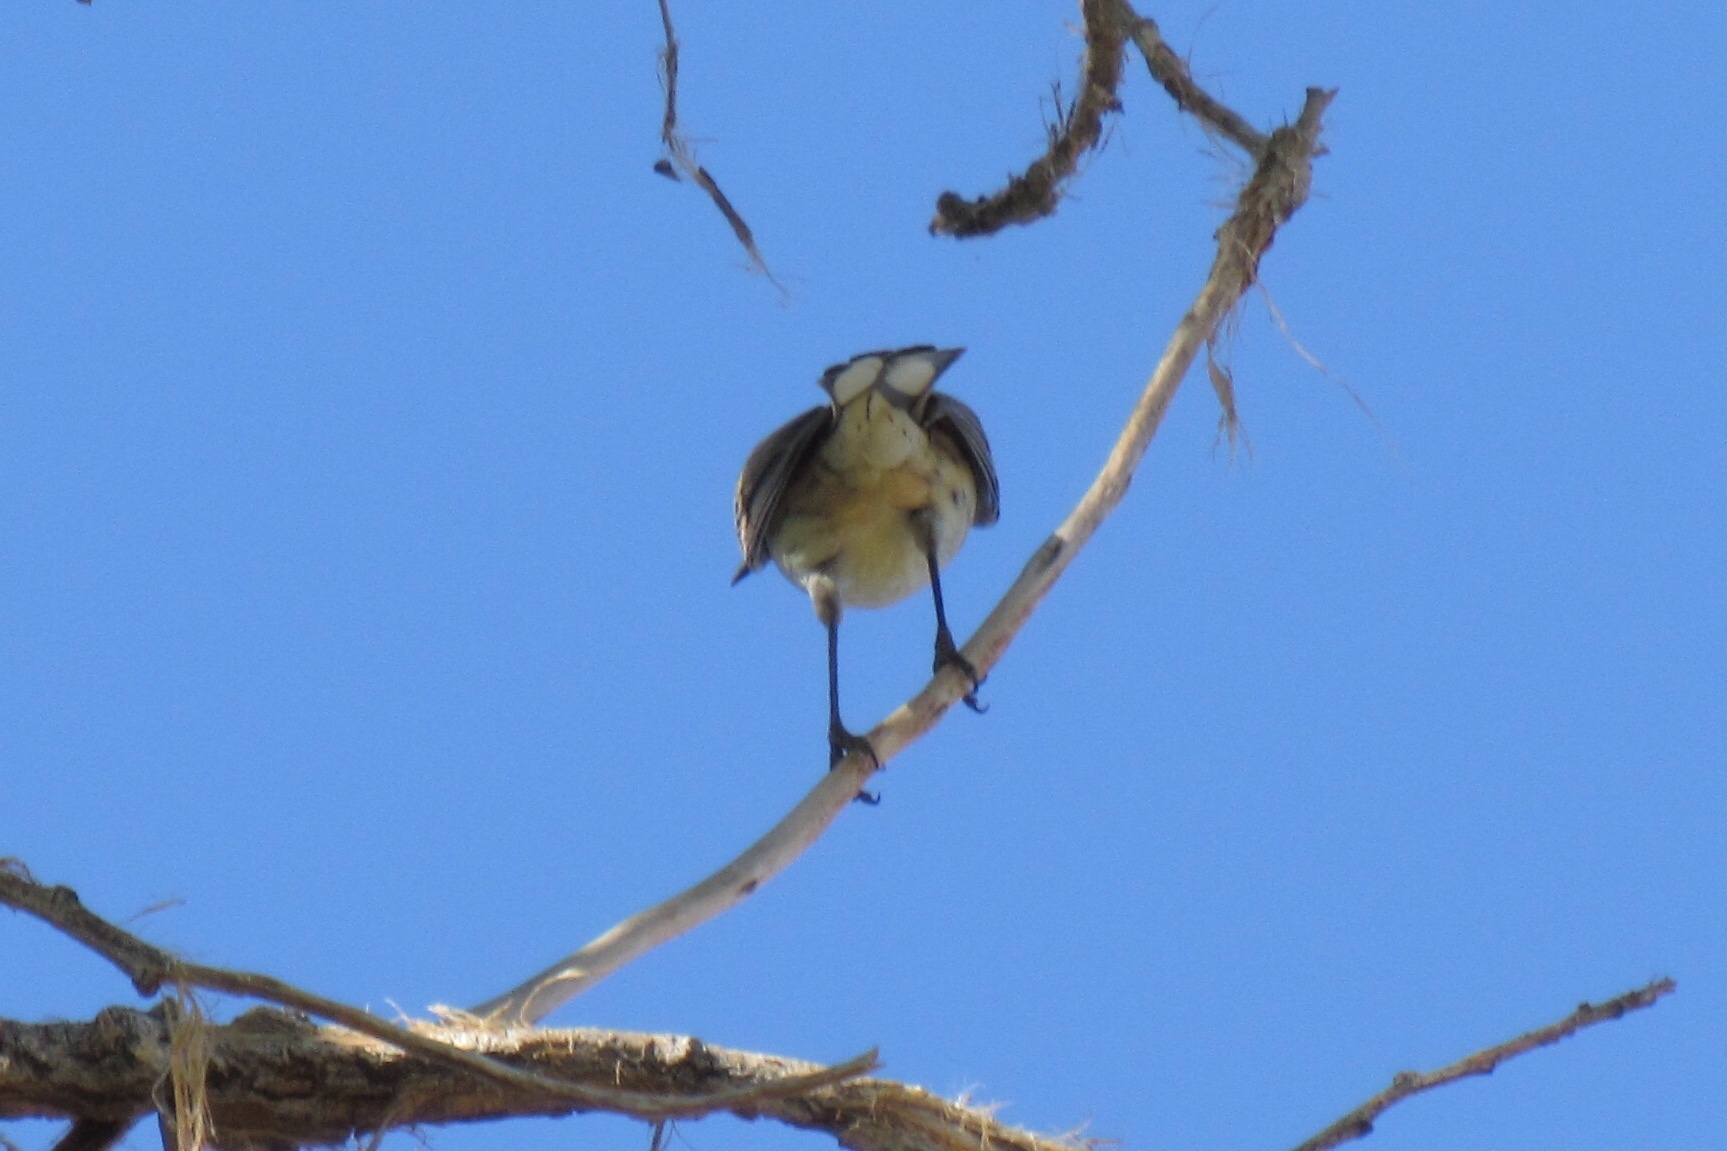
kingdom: Animalia
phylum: Chordata
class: Aves
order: Passeriformes
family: Parulidae
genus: Setophaga
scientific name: Setophaga coronata
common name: Myrtle warbler
